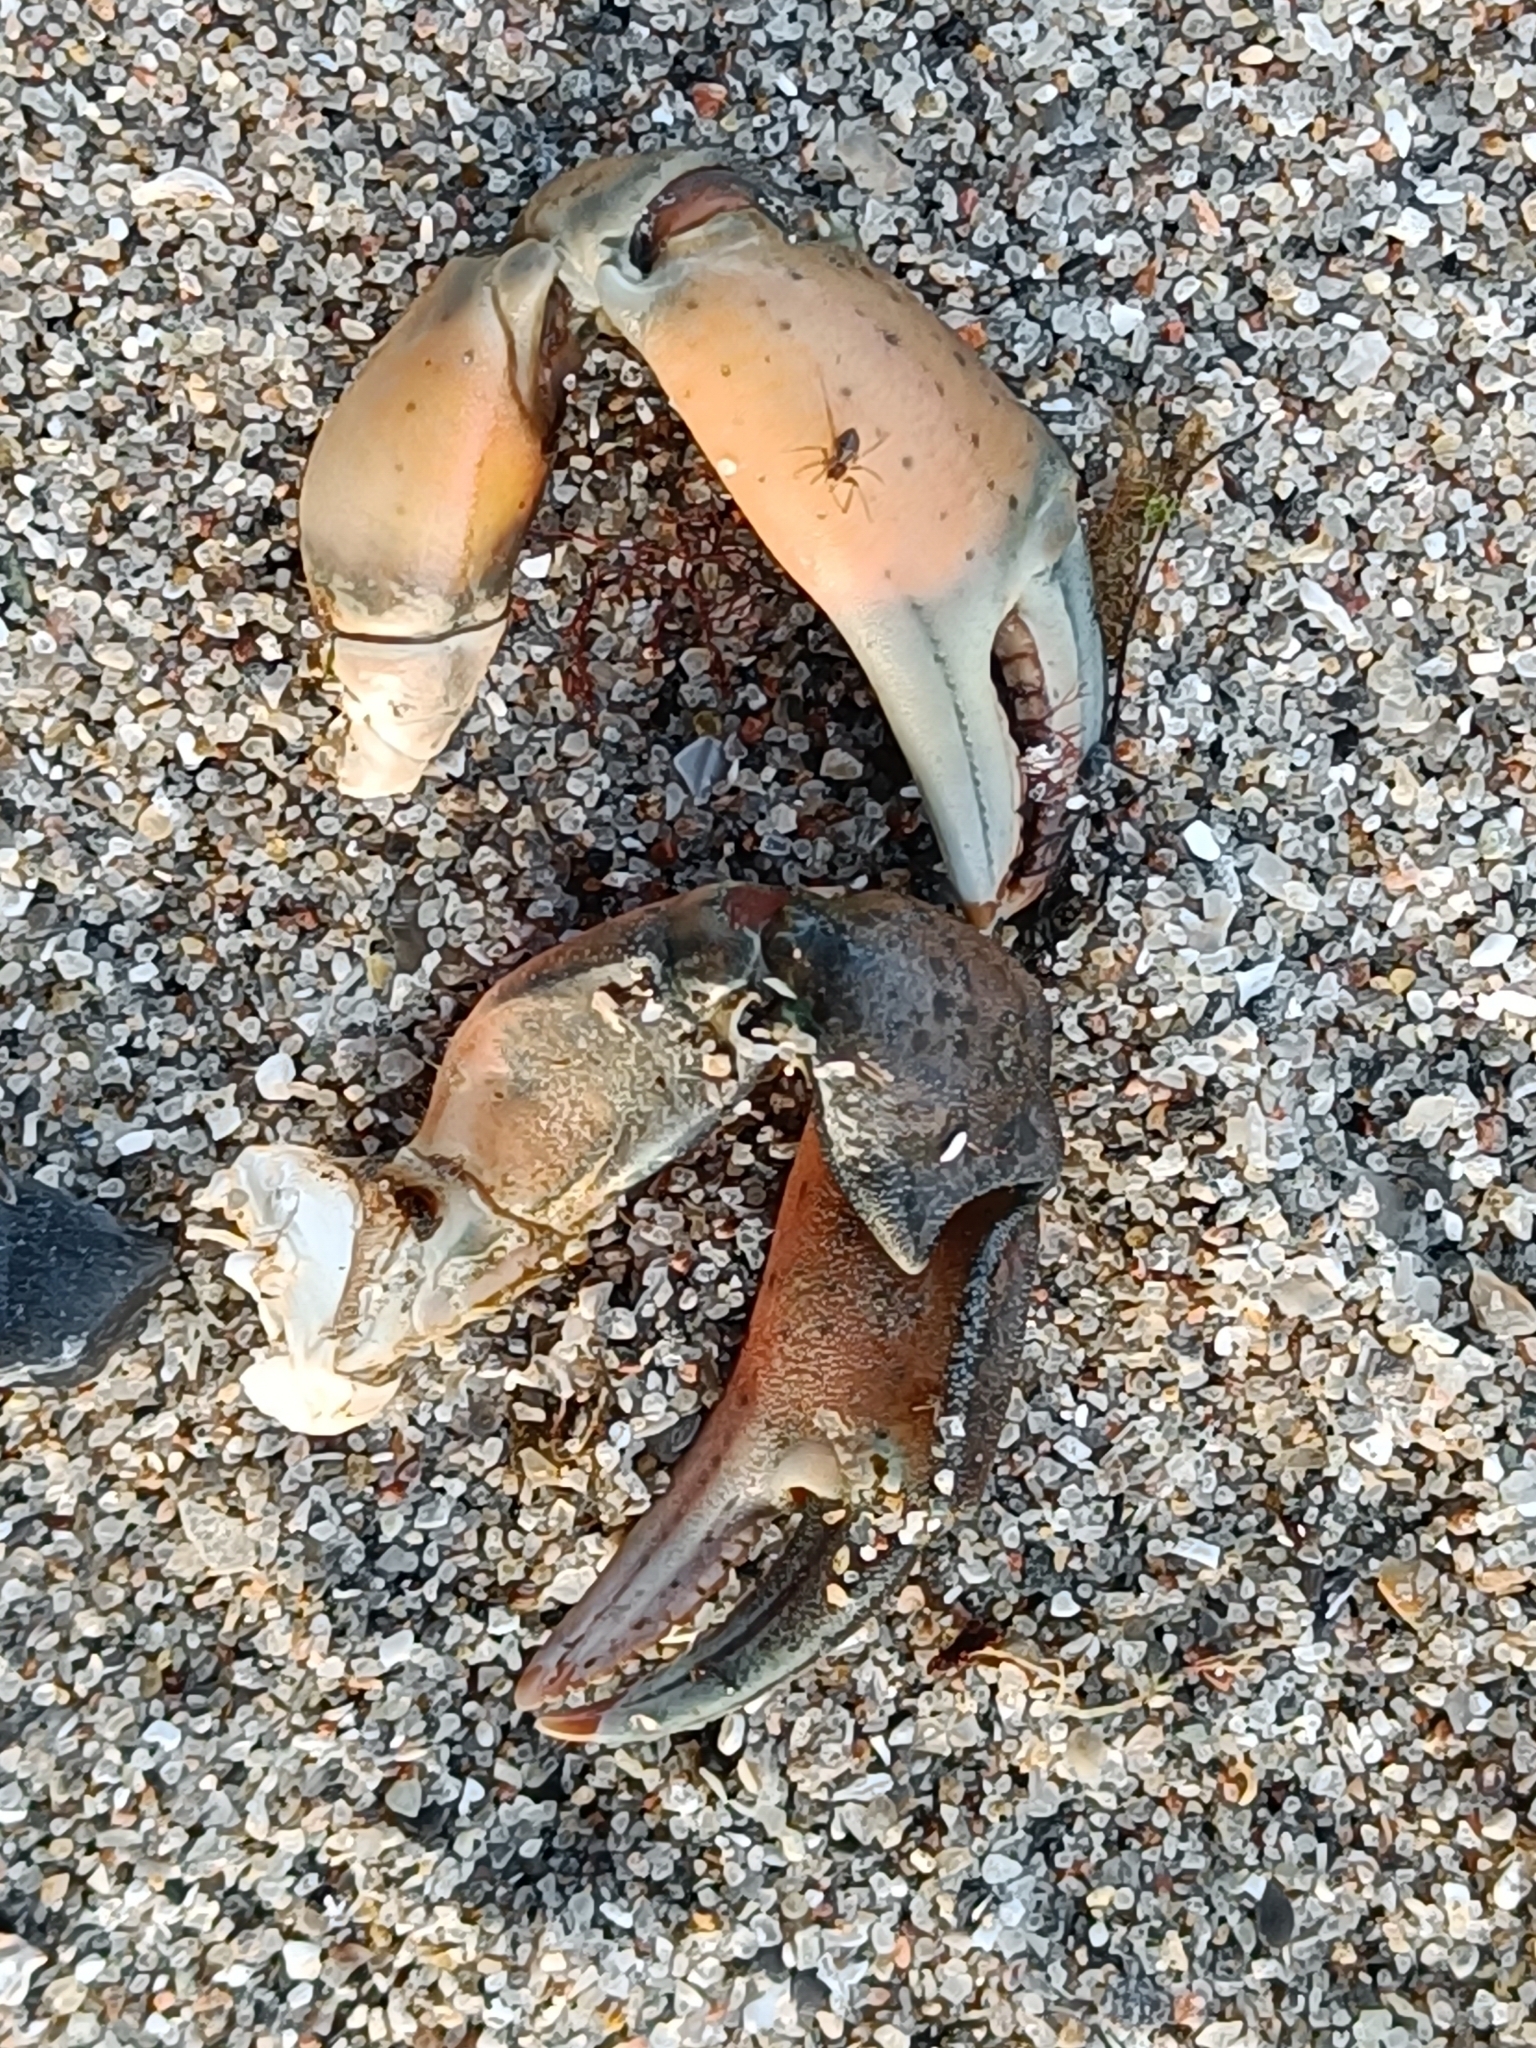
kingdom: Animalia
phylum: Arthropoda
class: Malacostraca
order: Decapoda
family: Carcinidae
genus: Carcinus
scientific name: Carcinus maenas
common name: European green crab
